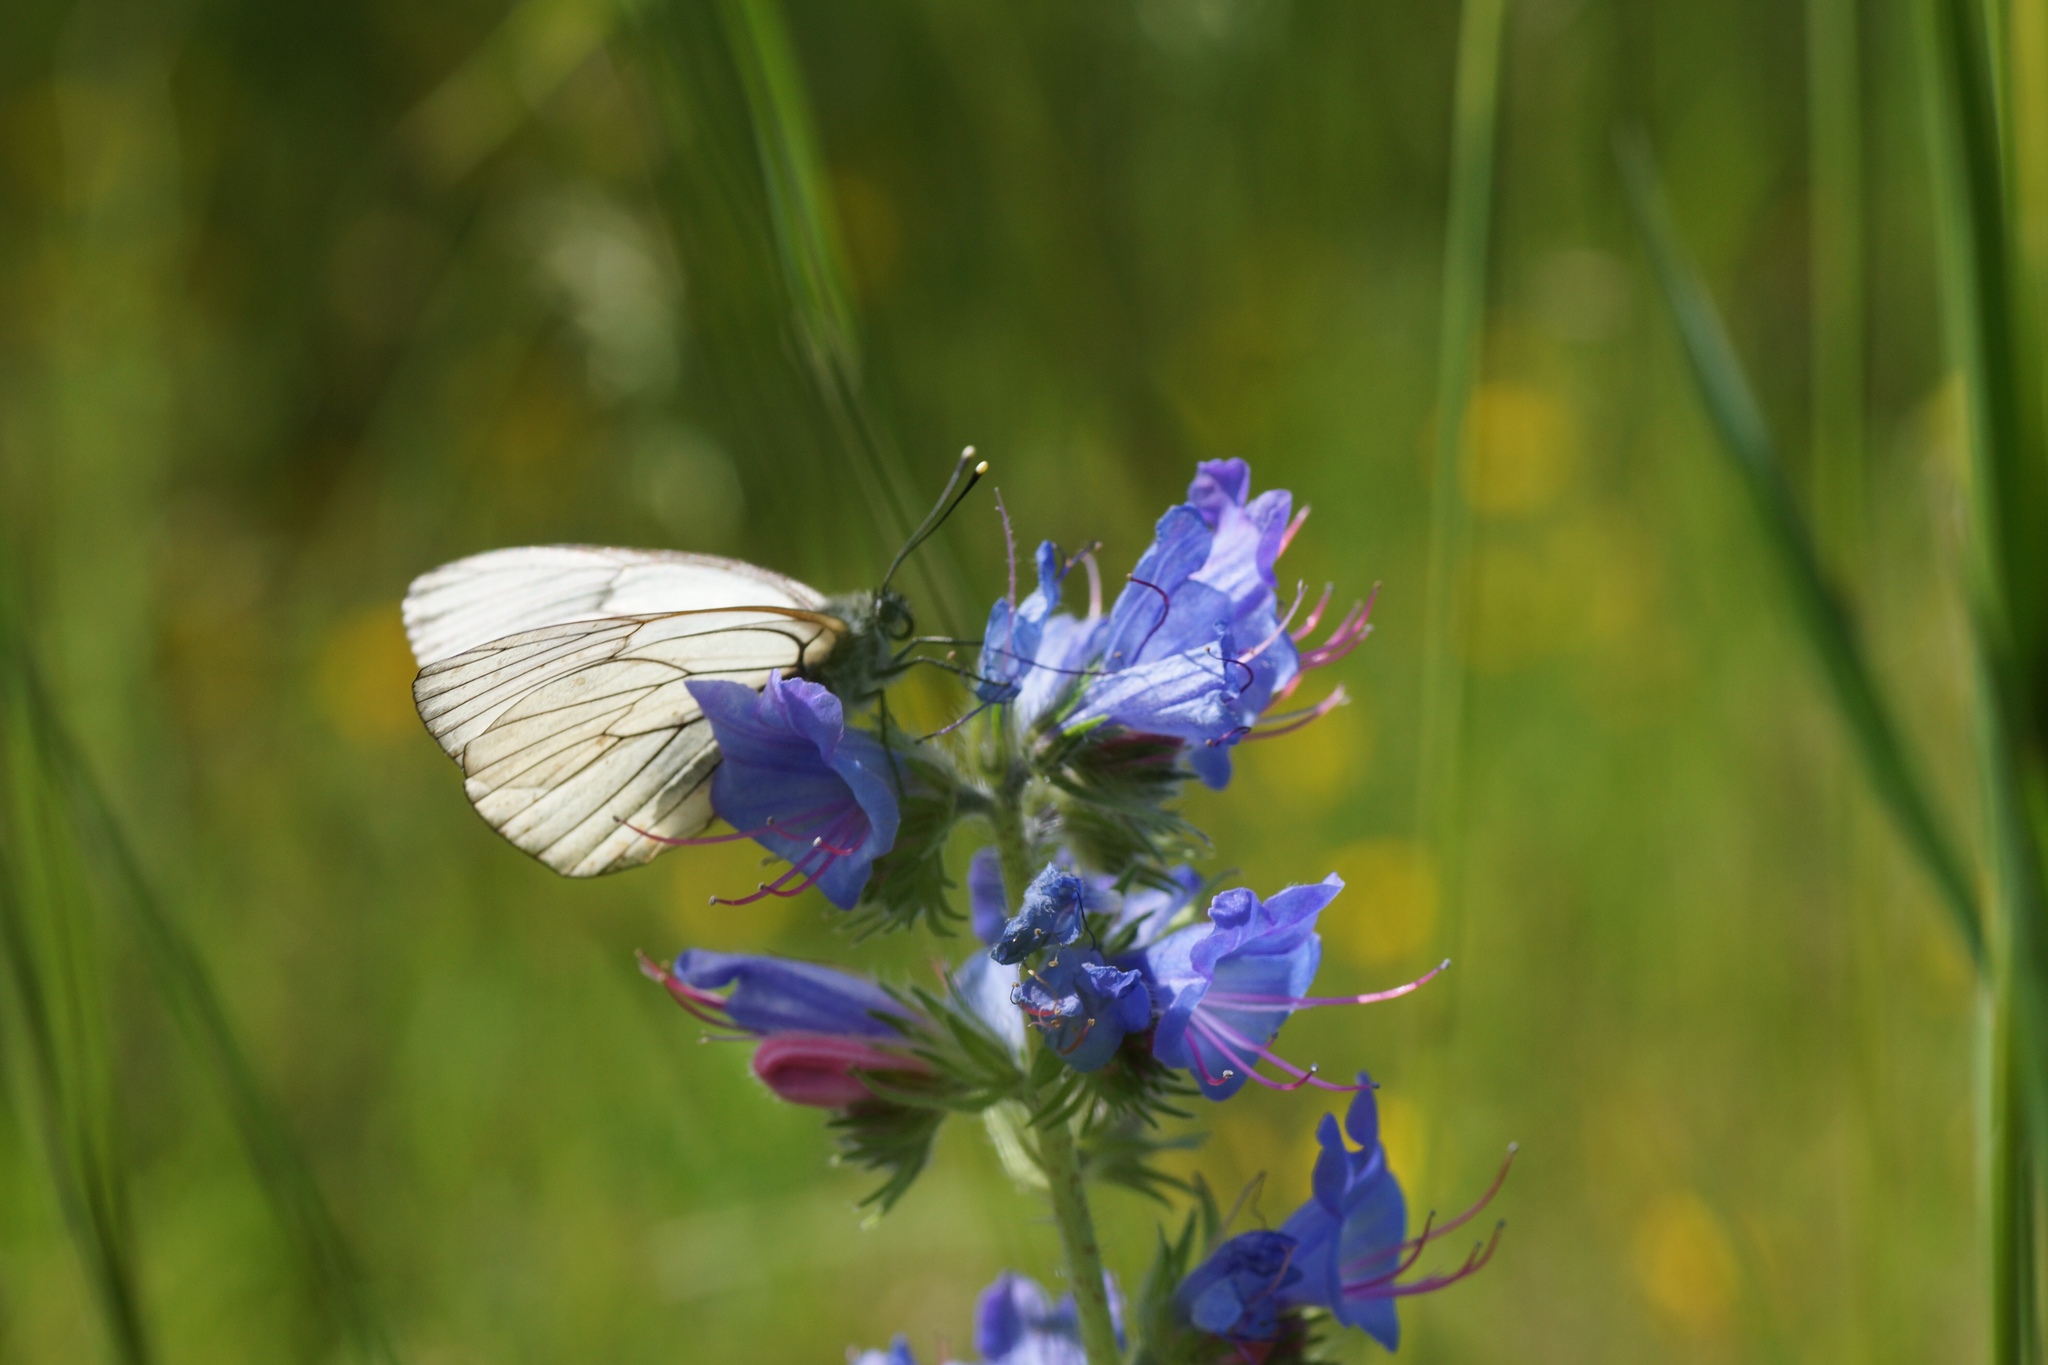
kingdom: Animalia
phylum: Arthropoda
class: Insecta
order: Lepidoptera
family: Pieridae
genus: Aporia
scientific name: Aporia crataegi
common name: Black-veined white
